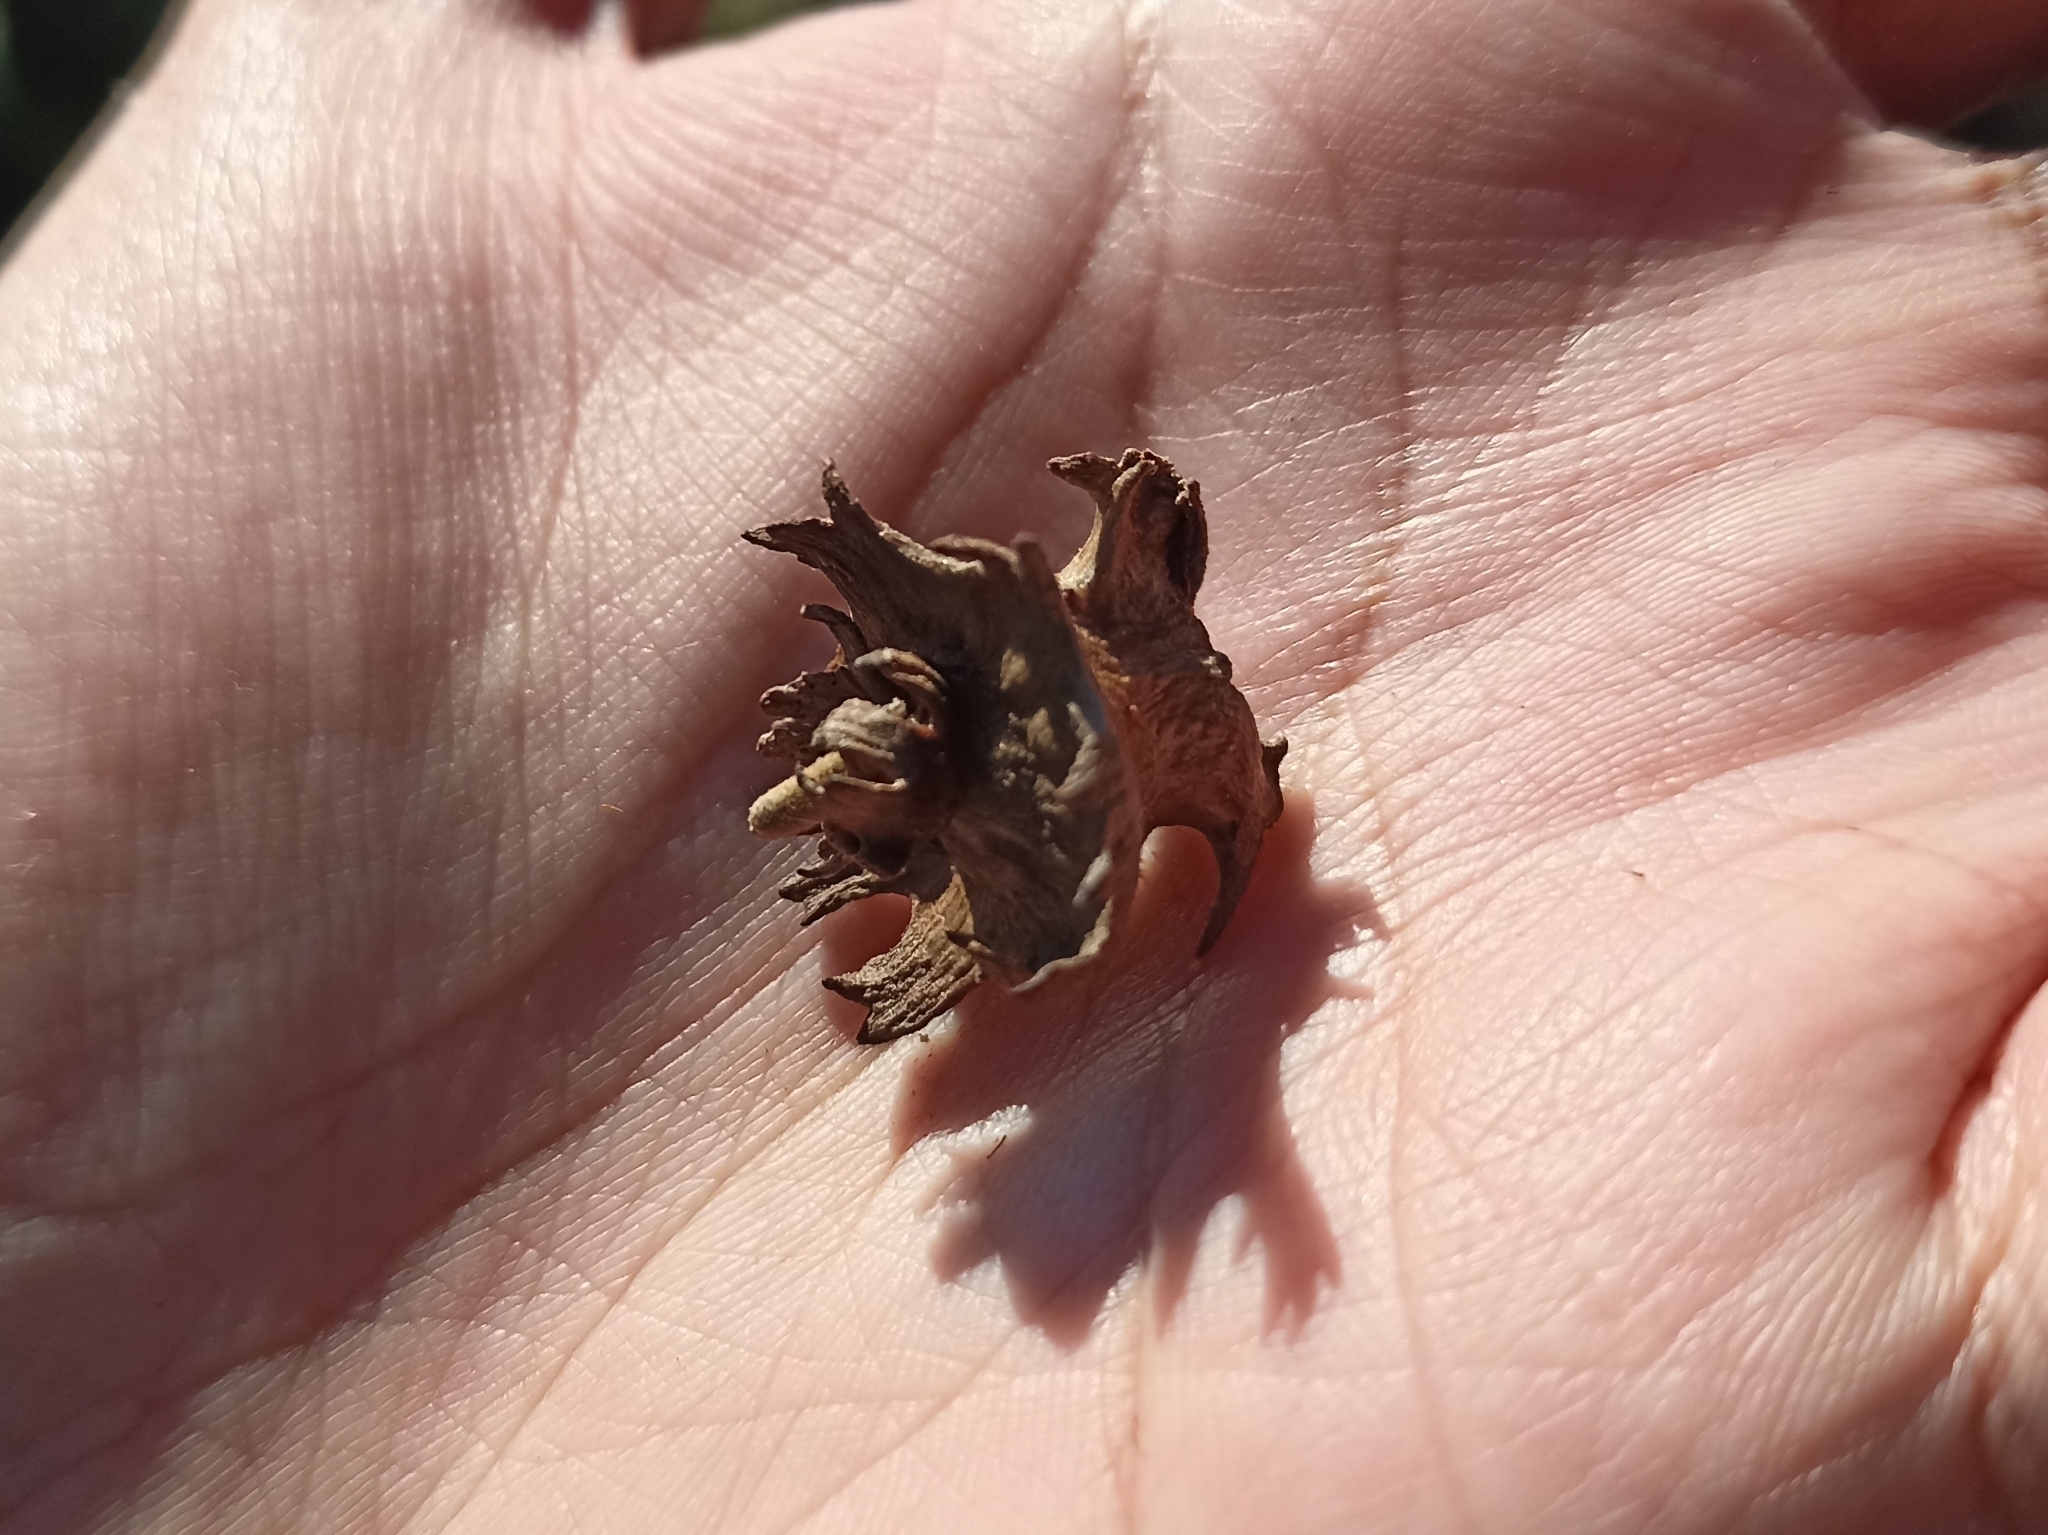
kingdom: Animalia
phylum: Arthropoda
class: Insecta
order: Hymenoptera
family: Cynipidae
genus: Andricus
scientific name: Andricus pictus
